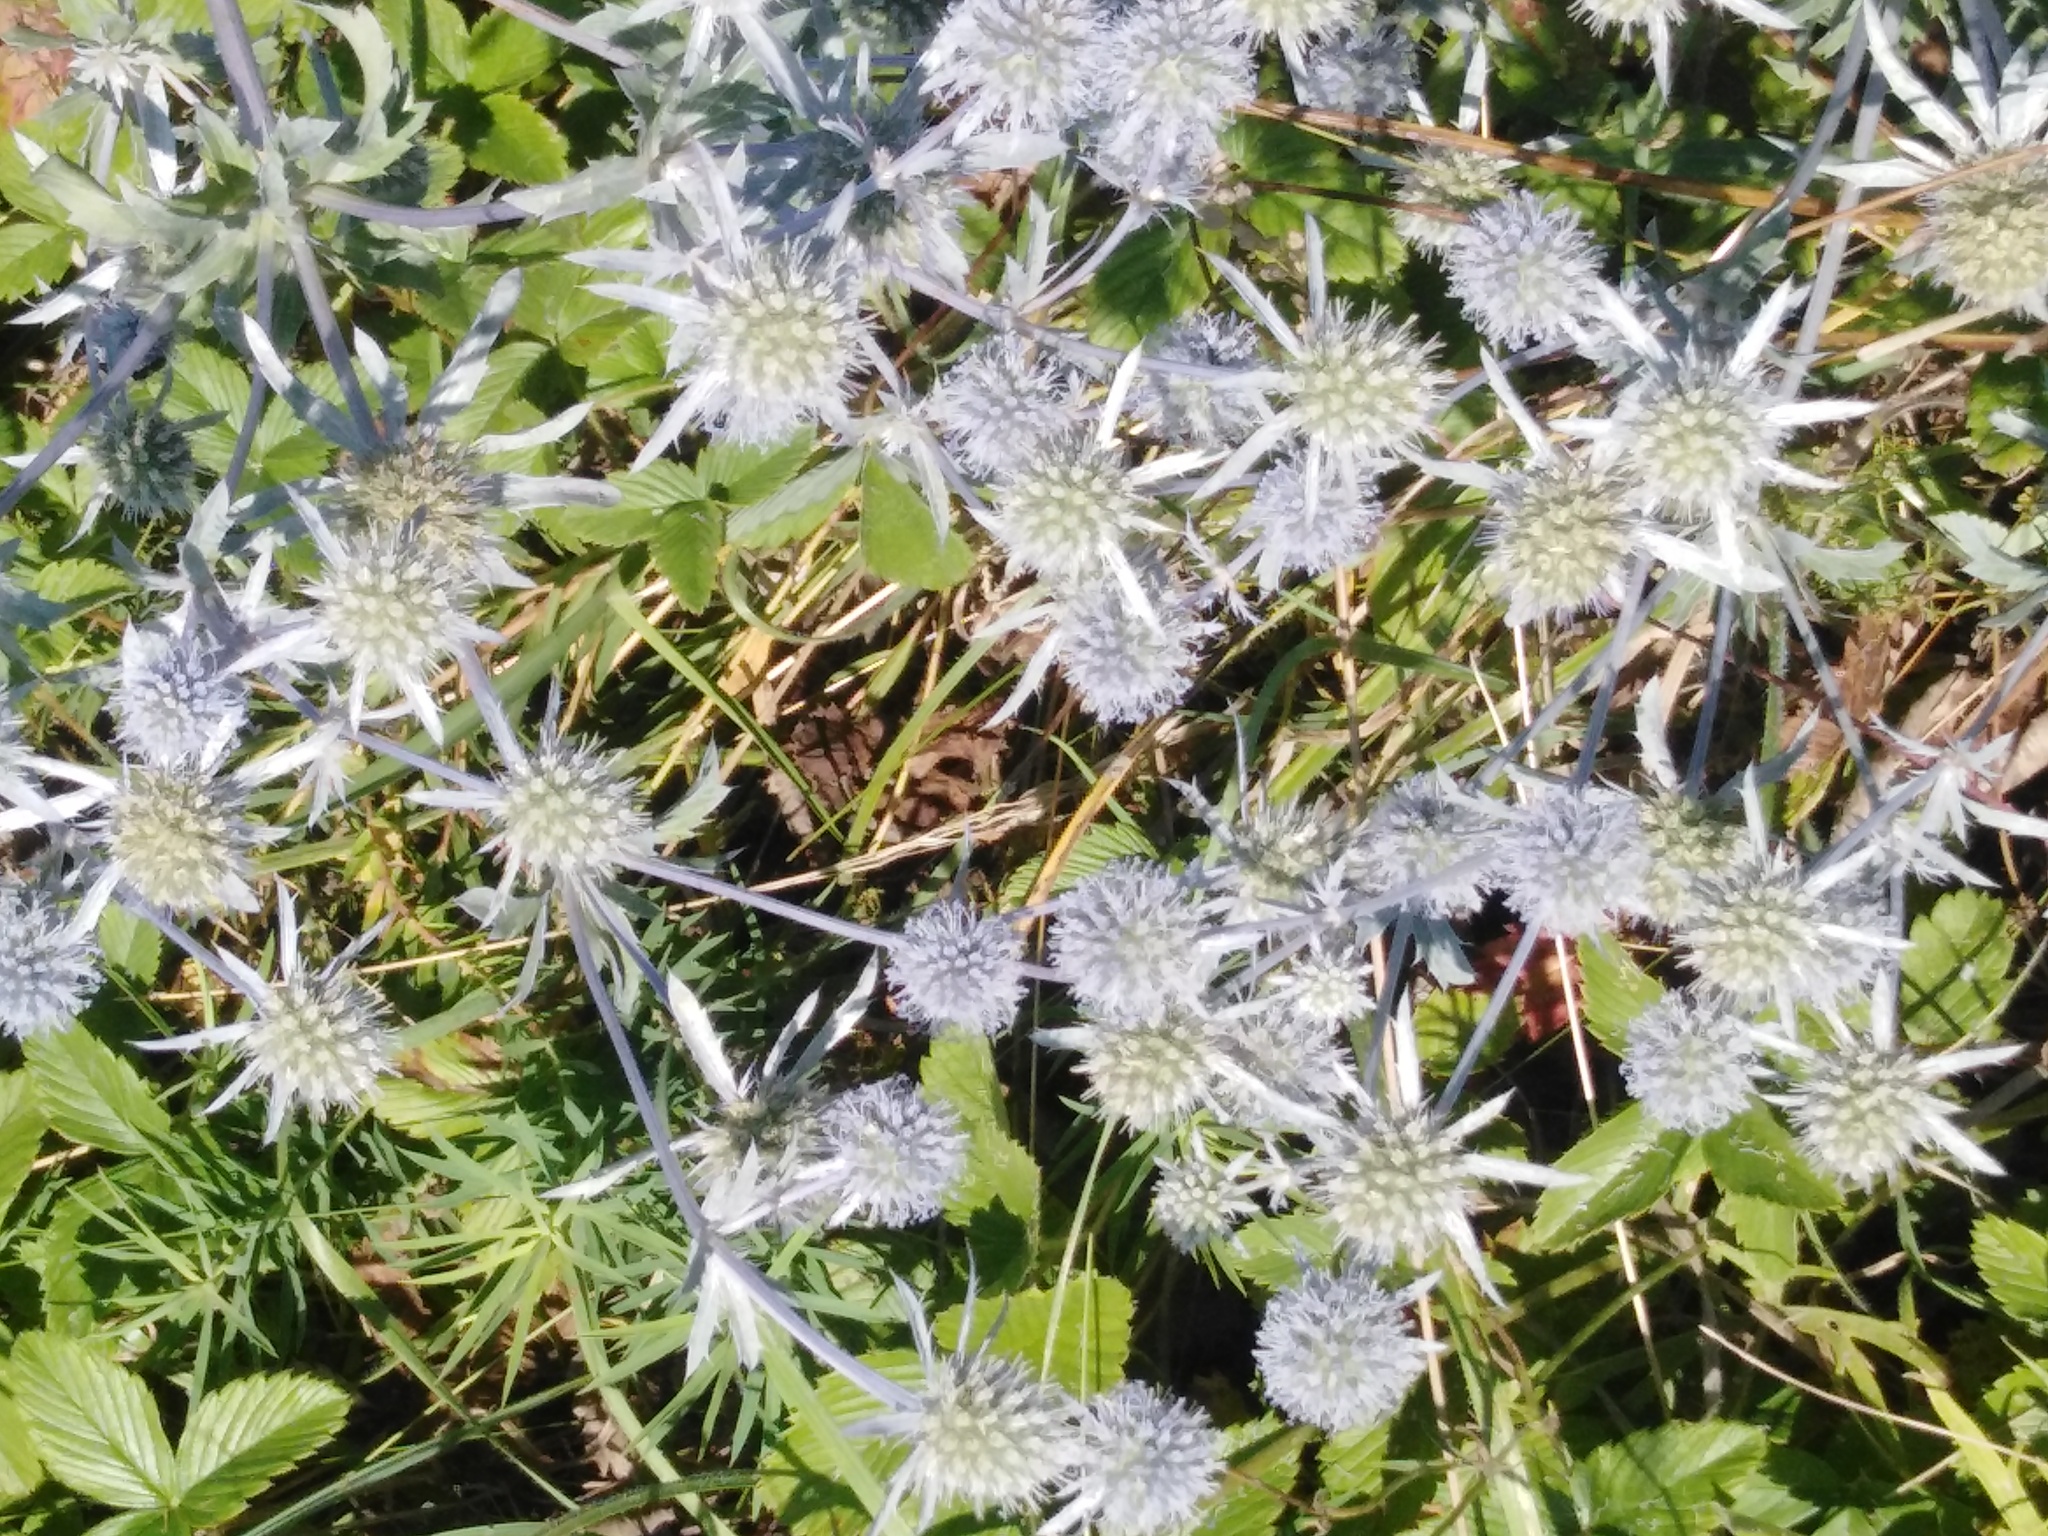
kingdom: Plantae
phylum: Tracheophyta
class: Magnoliopsida
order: Apiales
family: Apiaceae
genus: Eryngium
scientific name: Eryngium planum
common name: Blue eryngo
